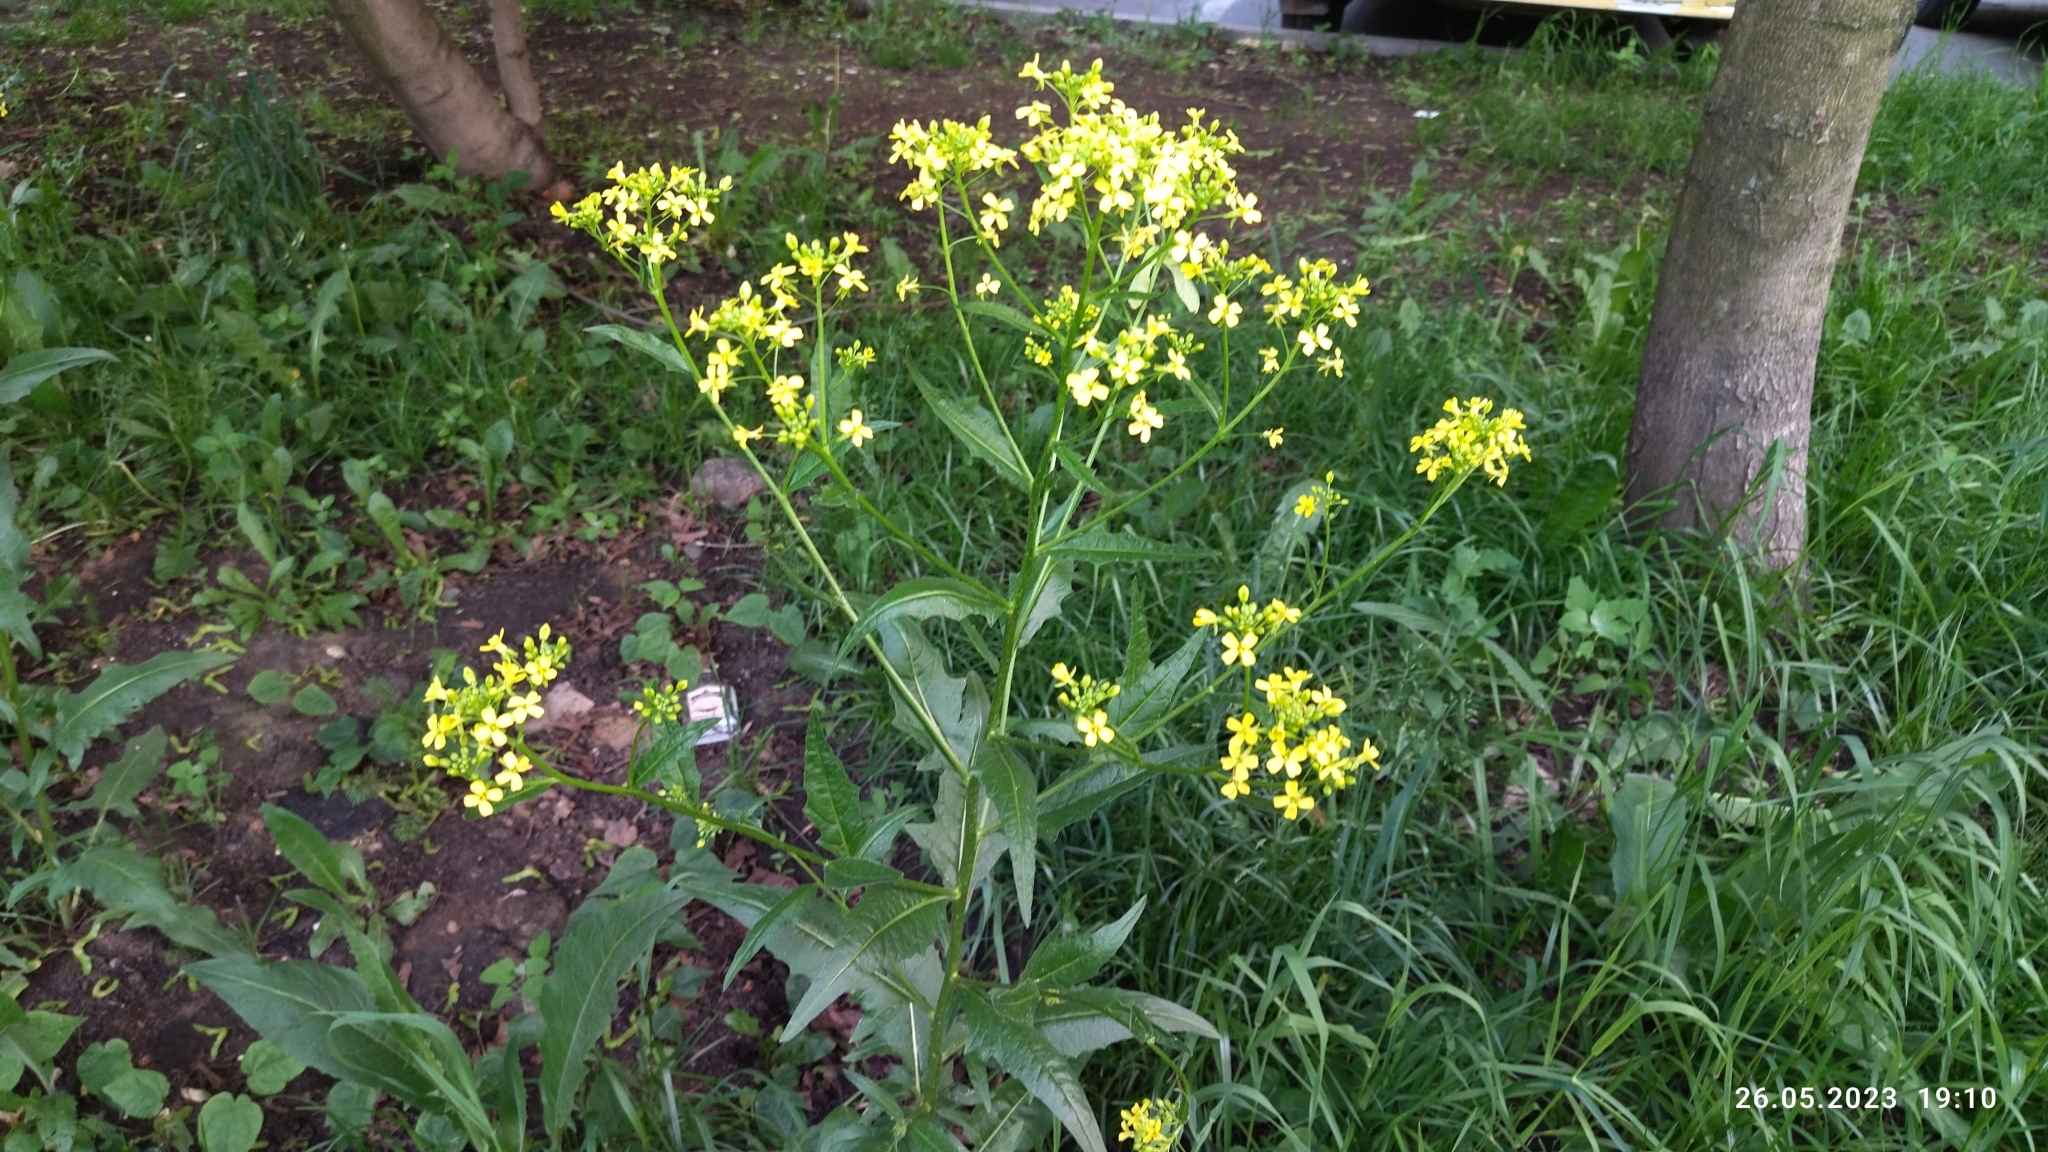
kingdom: Plantae
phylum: Tracheophyta
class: Magnoliopsida
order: Brassicales
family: Brassicaceae
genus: Bunias
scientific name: Bunias orientalis
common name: Warty-cabbage
